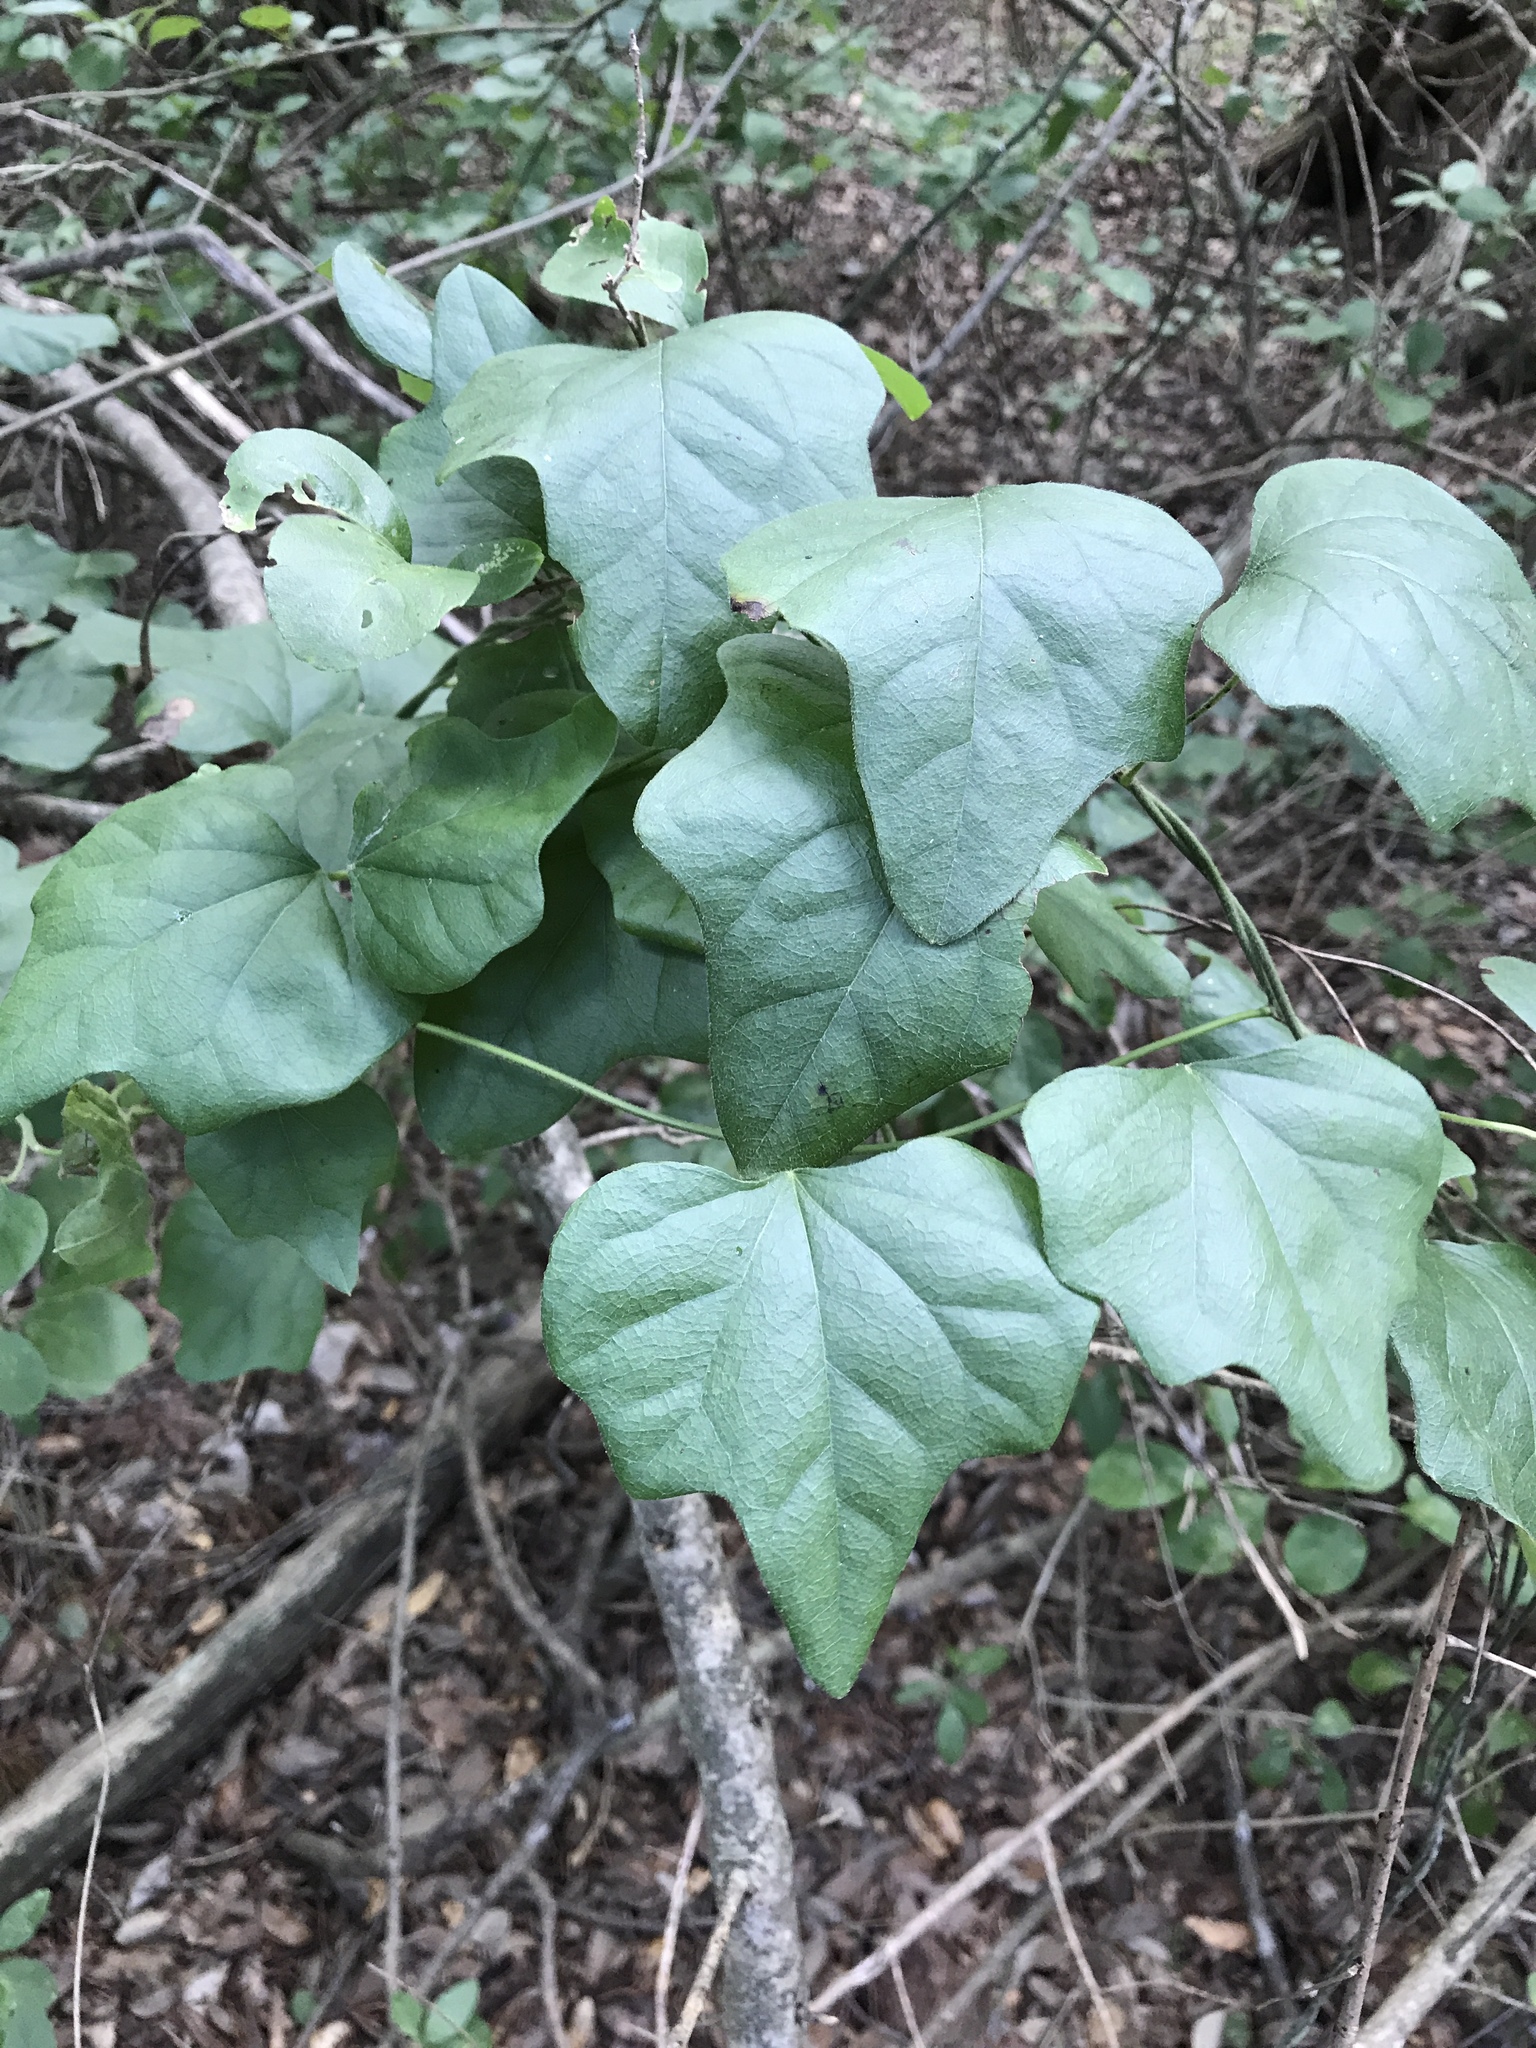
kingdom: Plantae
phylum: Tracheophyta
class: Magnoliopsida
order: Ranunculales
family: Menispermaceae
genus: Cocculus
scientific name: Cocculus carolinus
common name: Carolina moonseed
